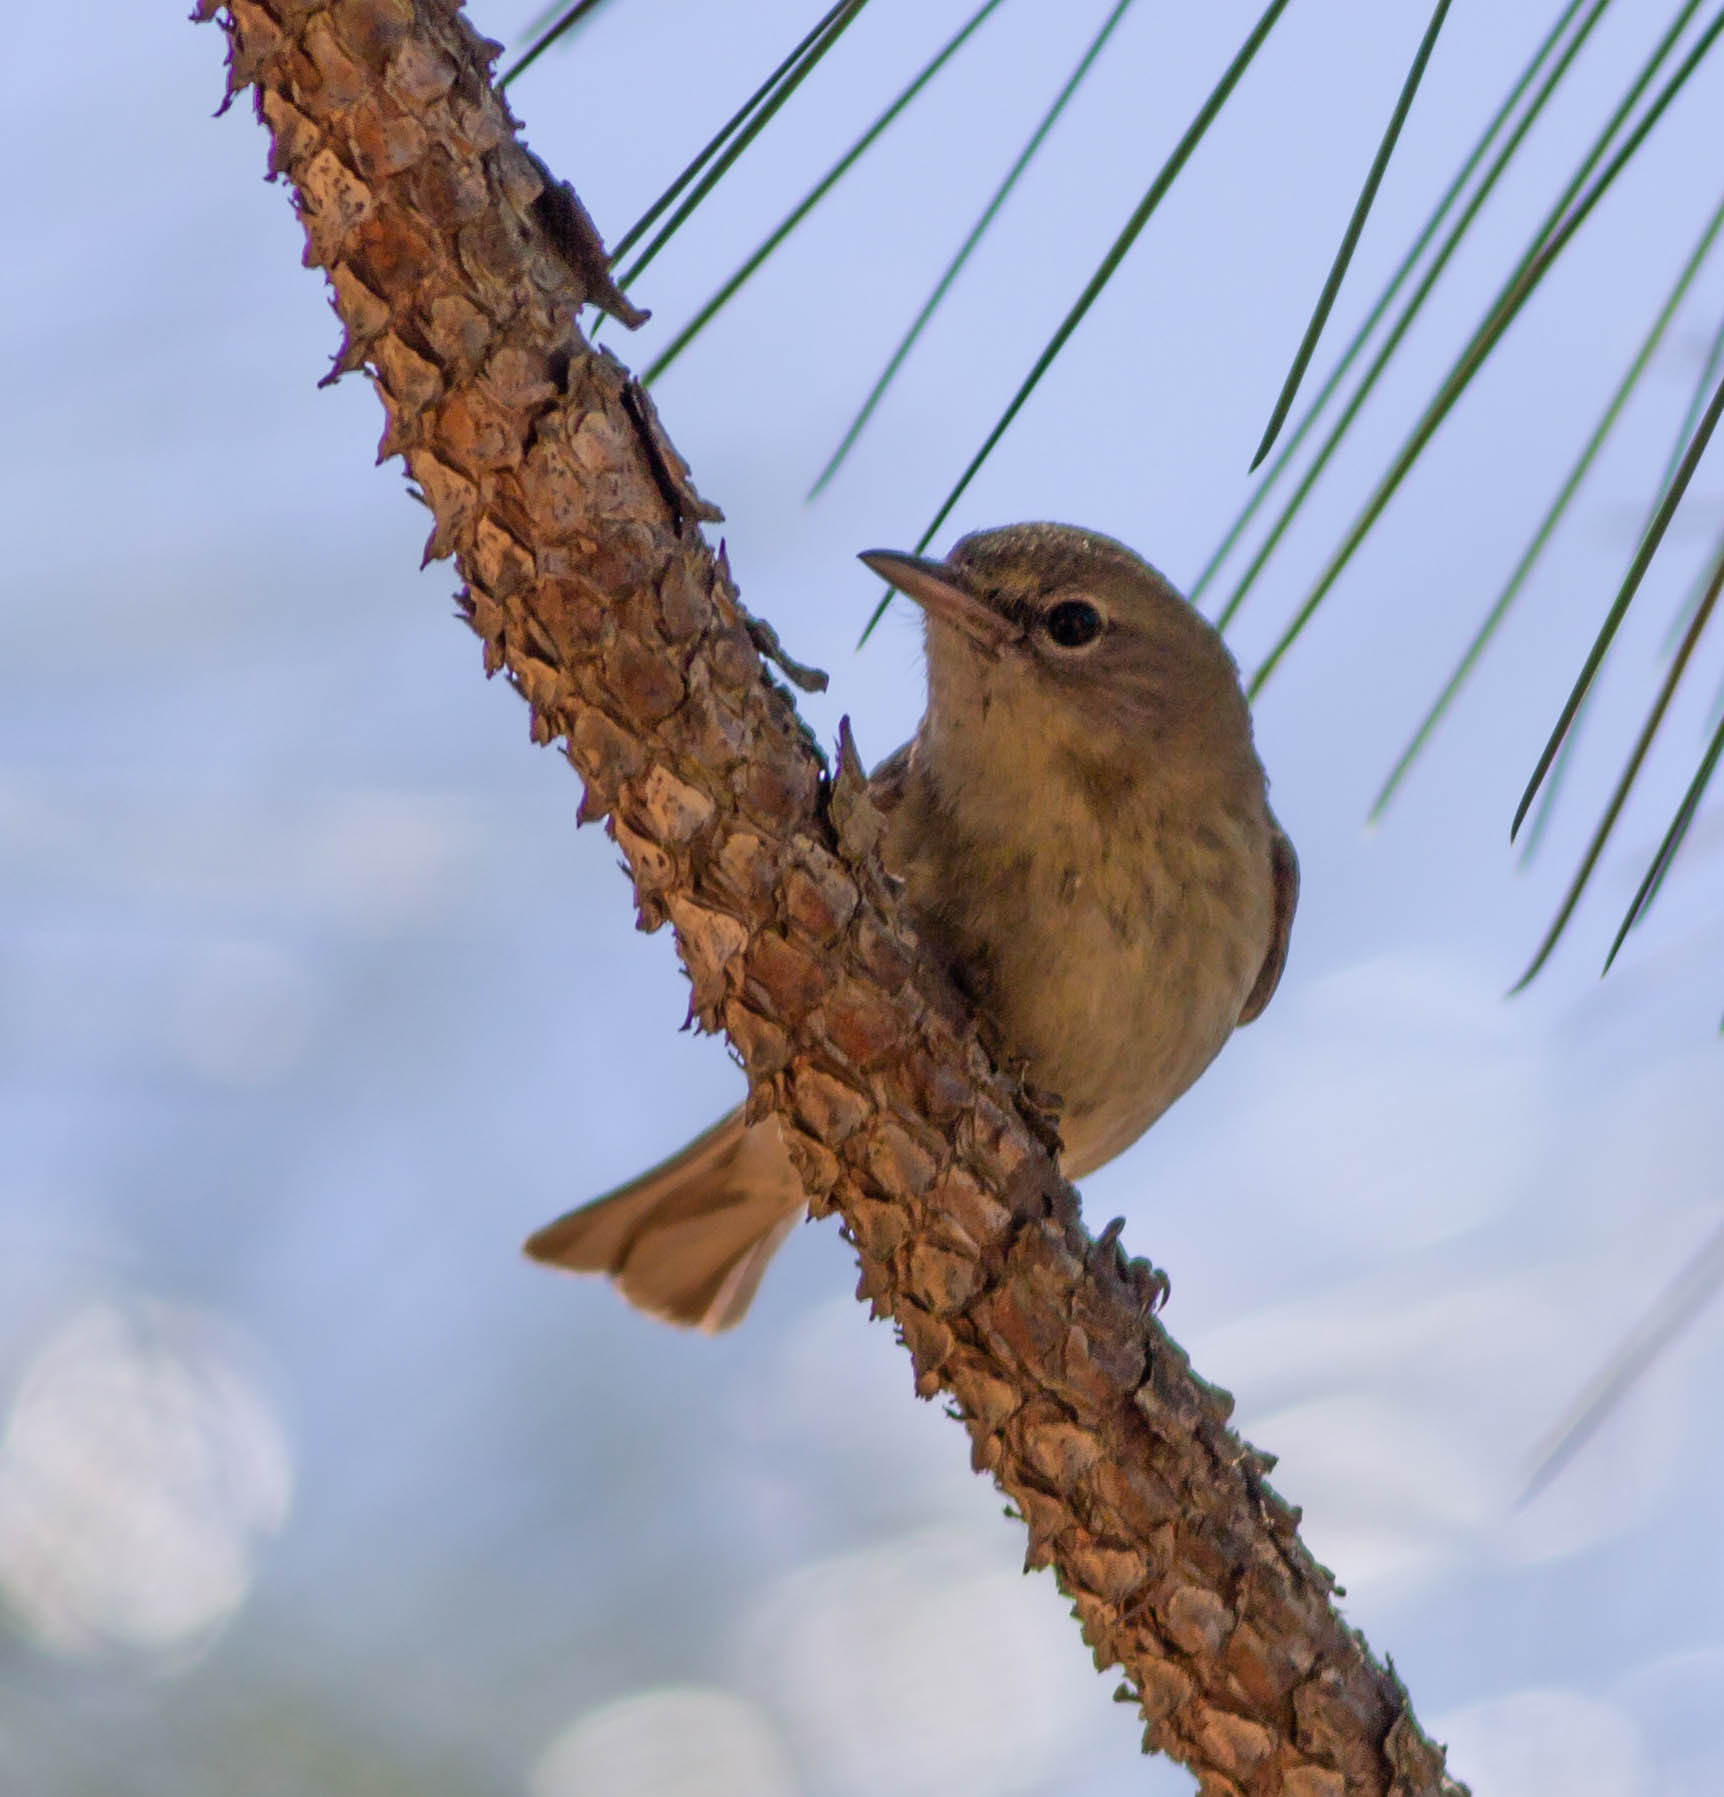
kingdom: Animalia
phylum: Chordata
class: Aves
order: Passeriformes
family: Parulidae
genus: Setophaga
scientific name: Setophaga pinus
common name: Pine warbler
